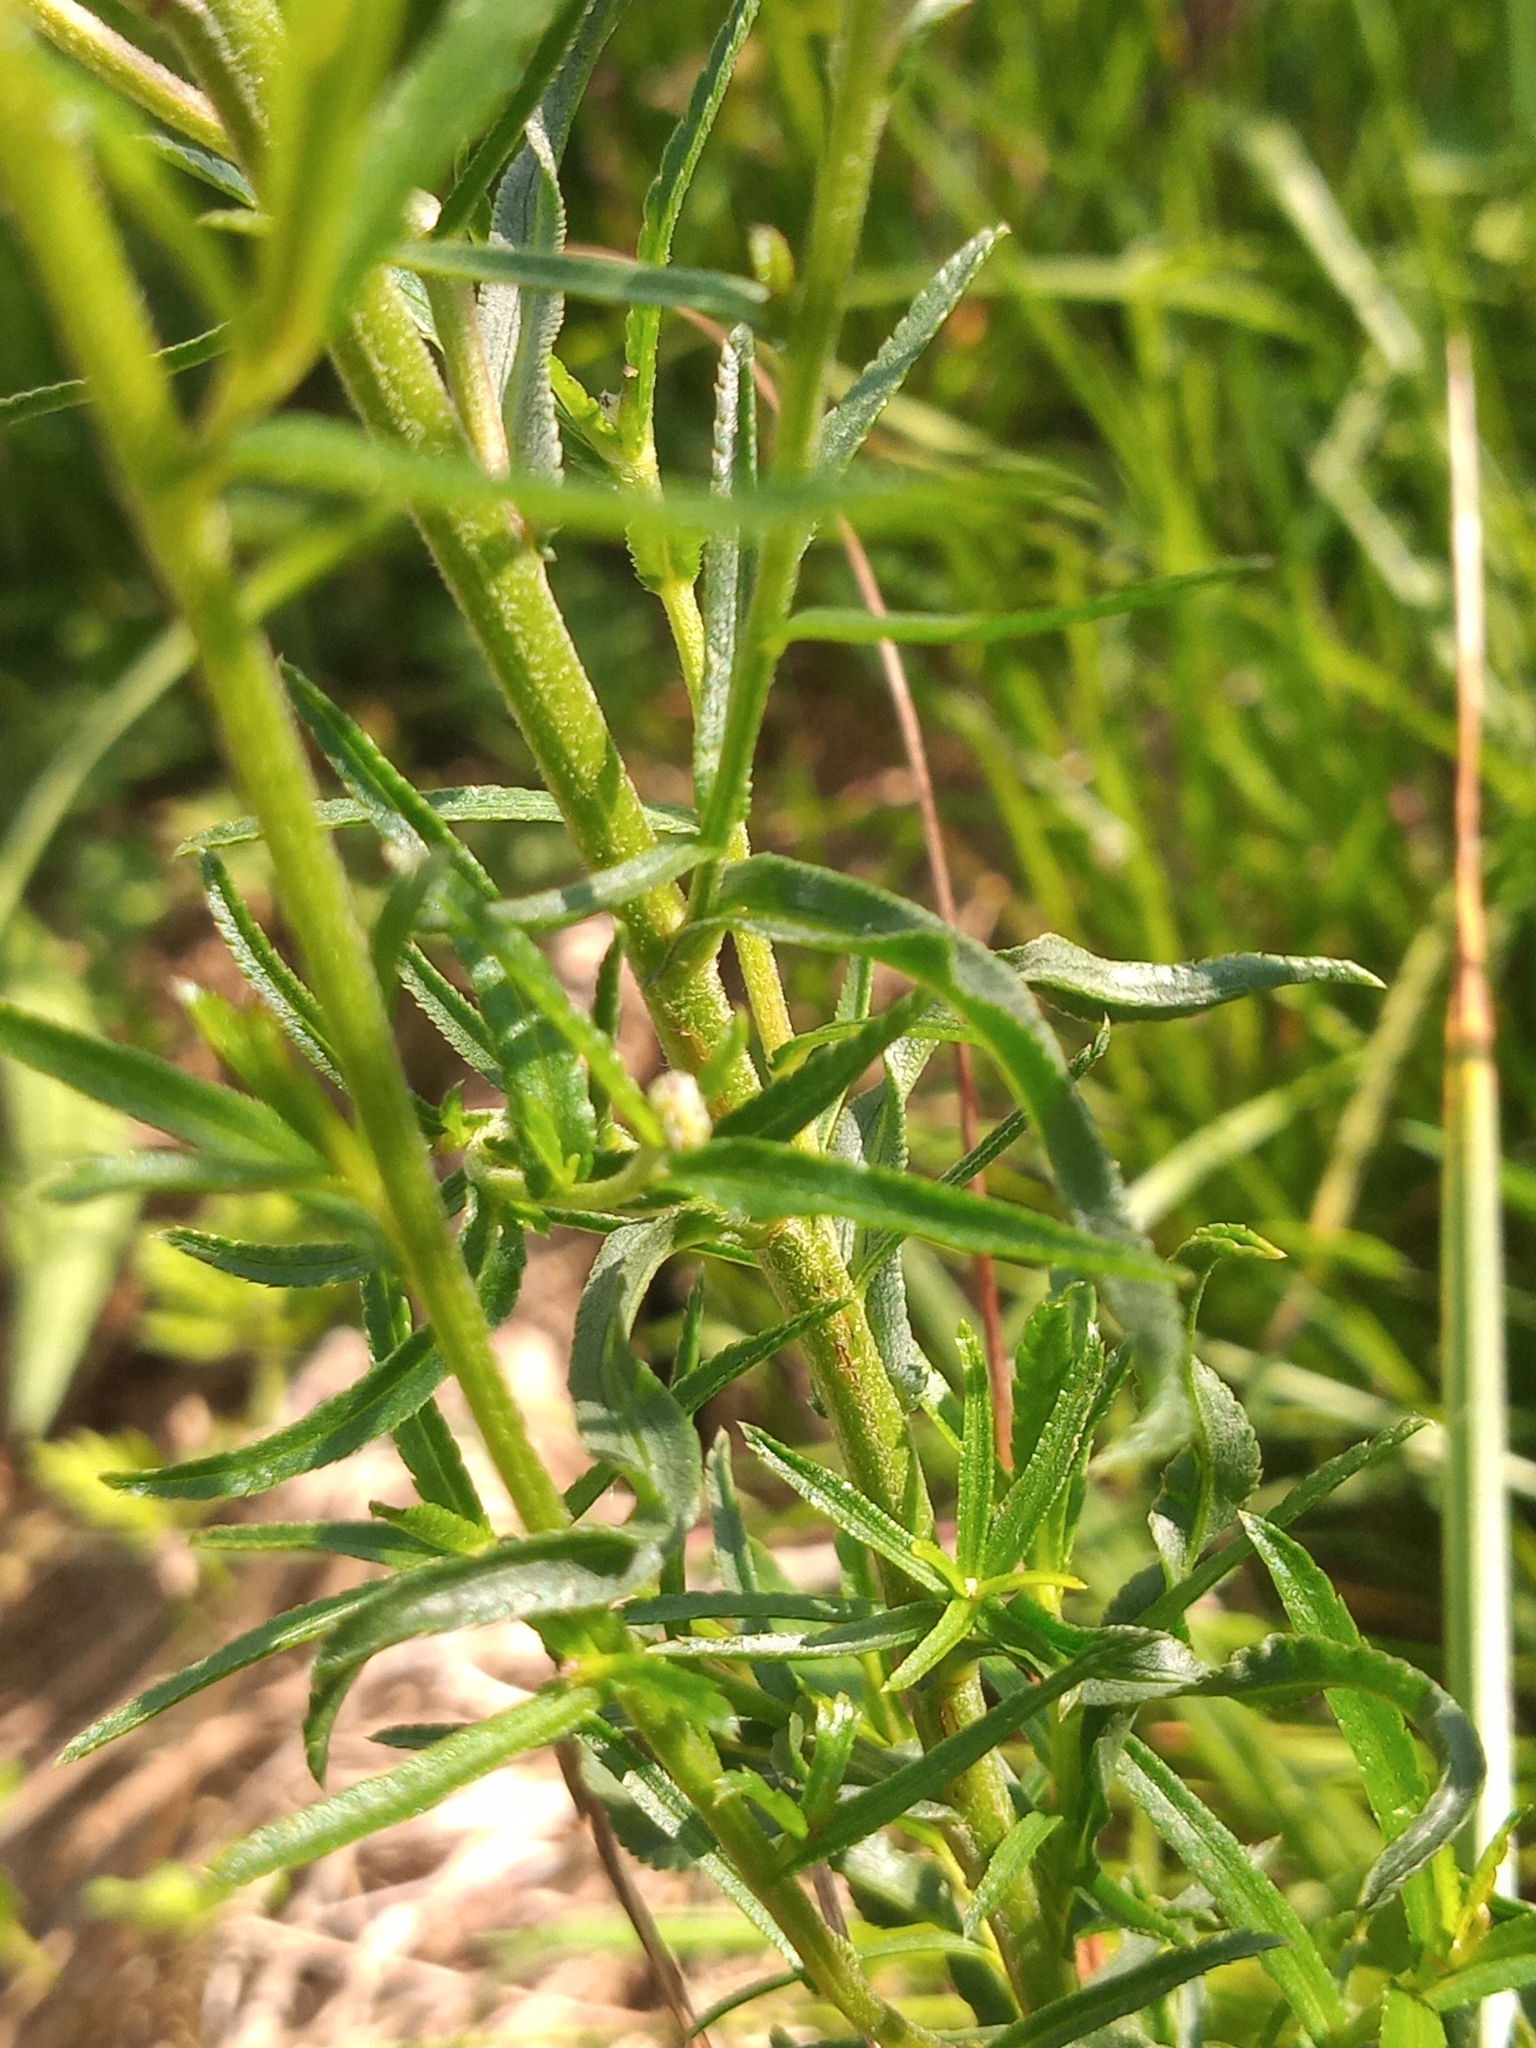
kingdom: Plantae
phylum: Tracheophyta
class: Magnoliopsida
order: Asterales
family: Asteraceae
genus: Achillea
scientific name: Achillea ptarmica
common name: Sneezeweed
